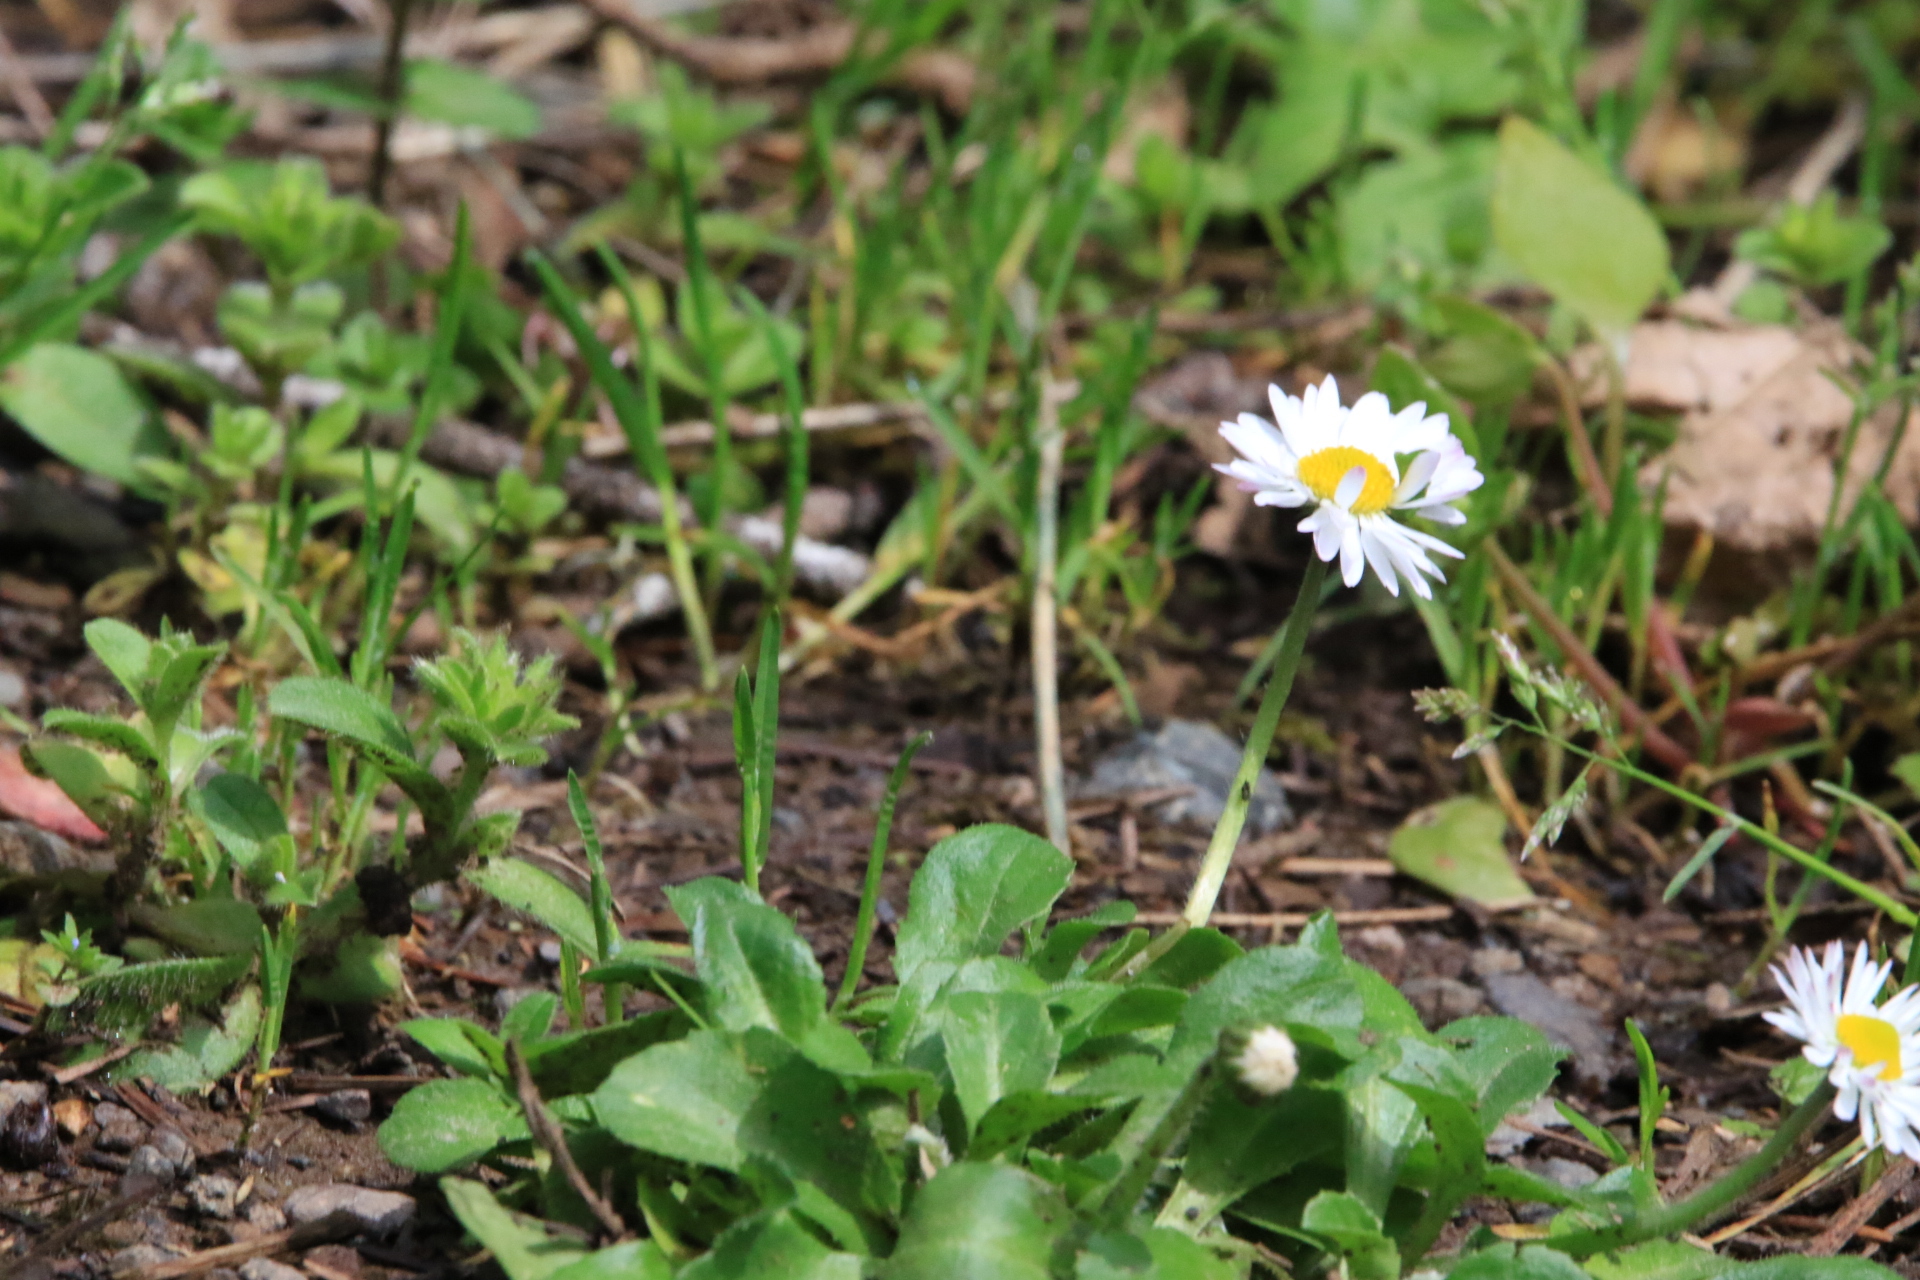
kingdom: Plantae
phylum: Tracheophyta
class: Magnoliopsida
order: Asterales
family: Asteraceae
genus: Bellis
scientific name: Bellis perennis
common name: Lawndaisy
